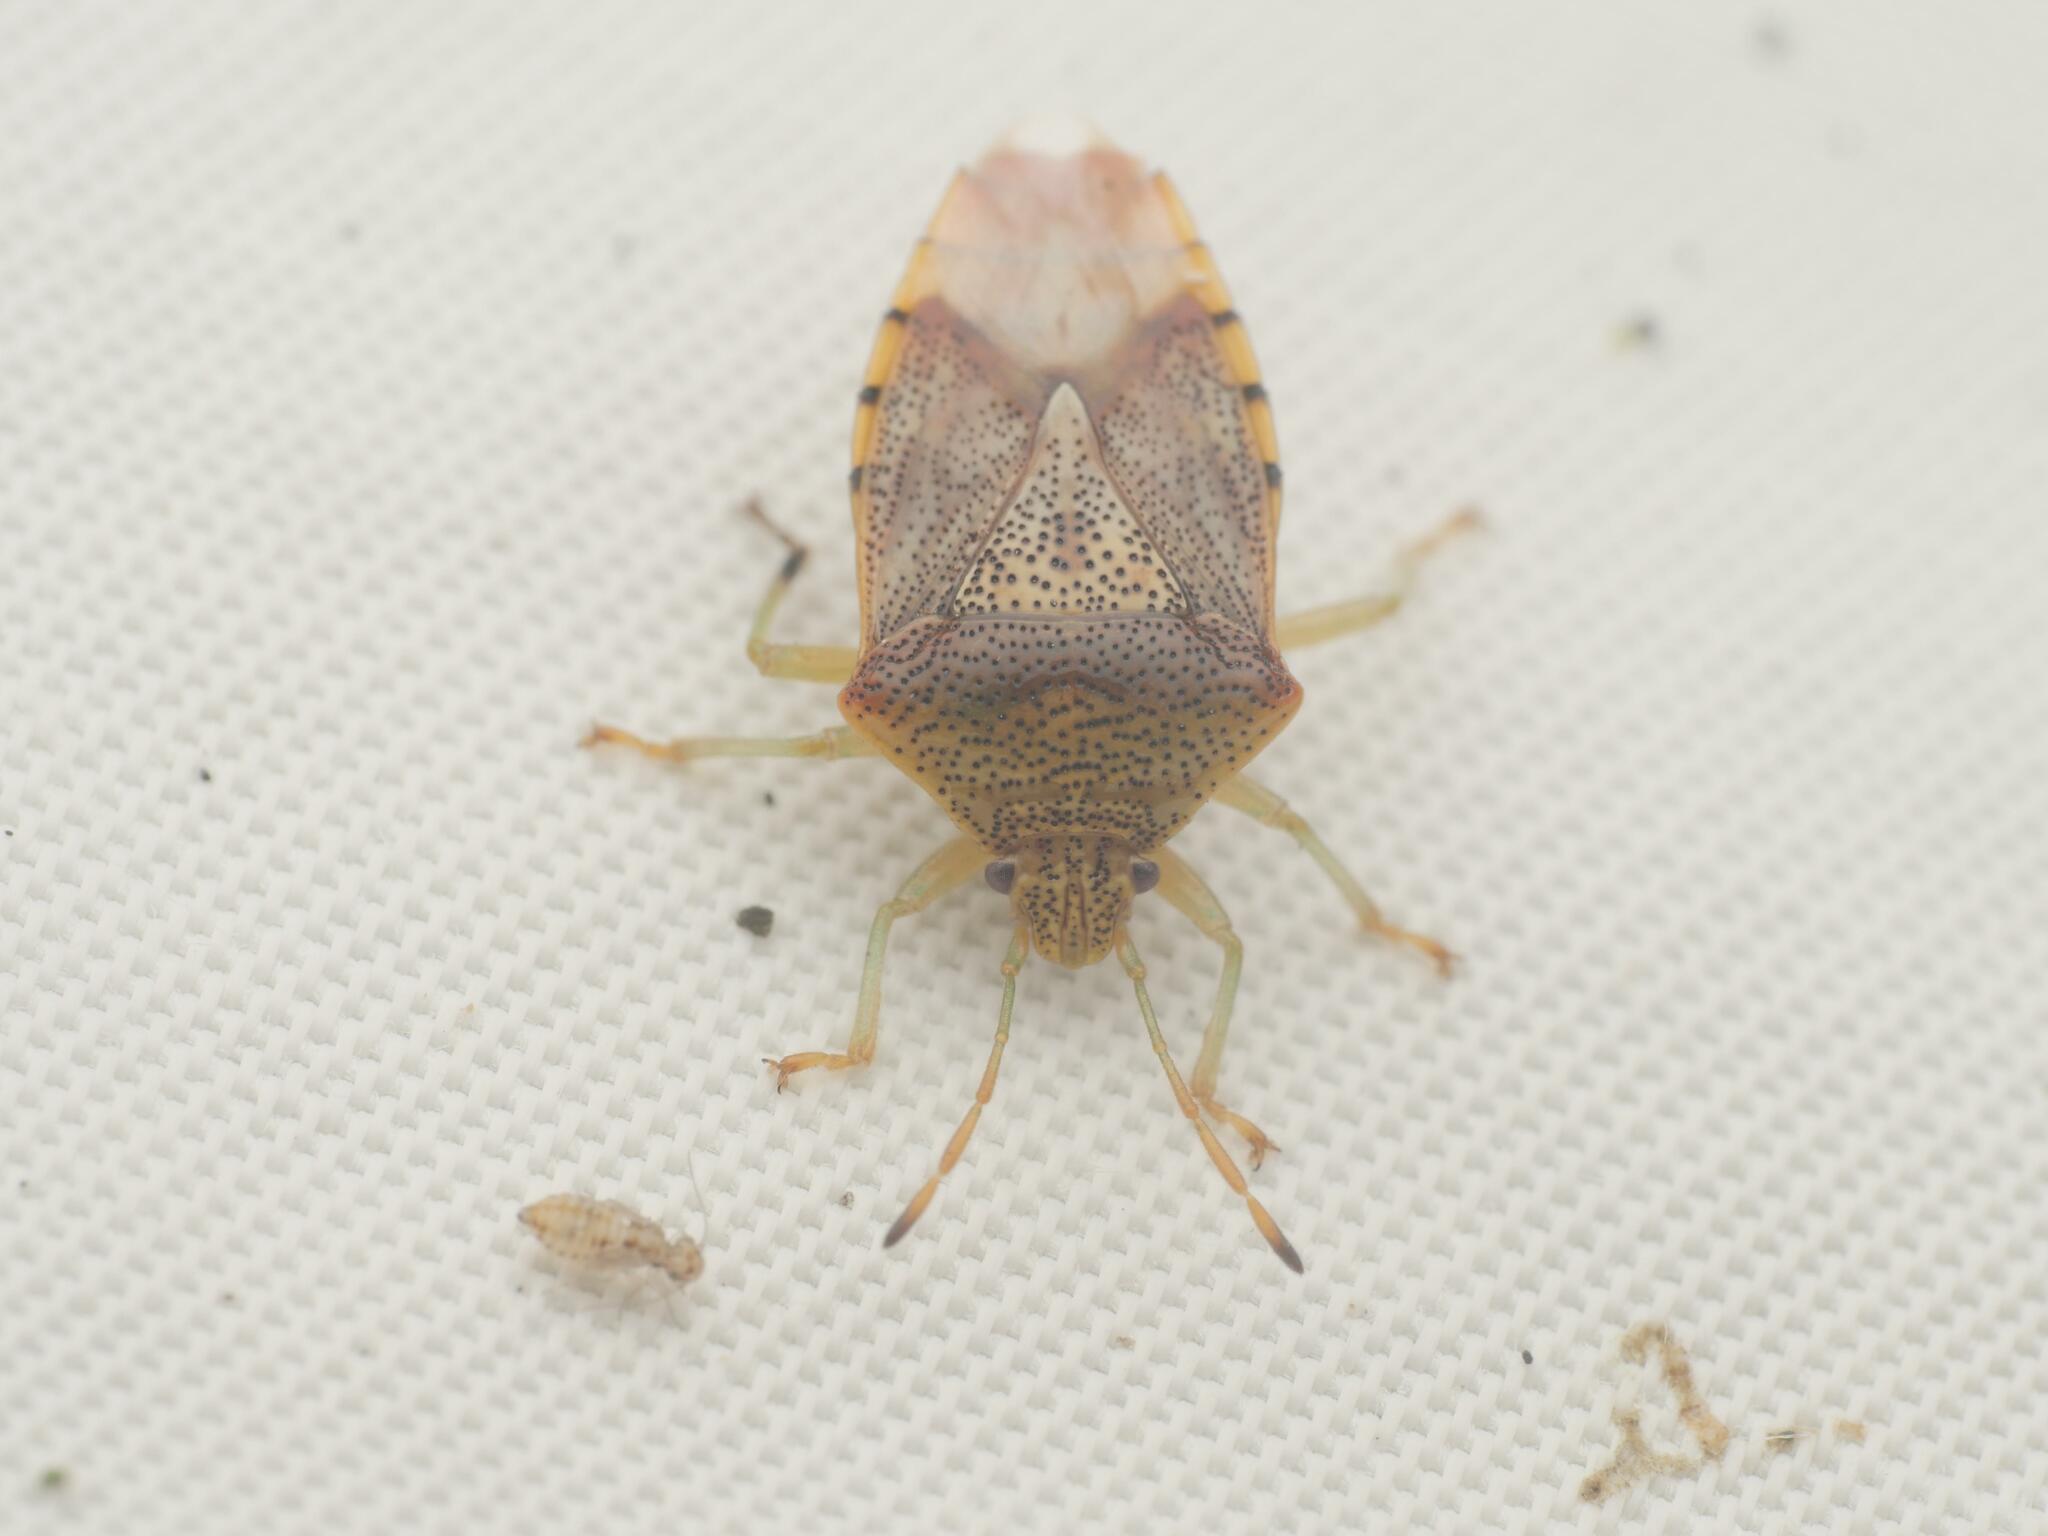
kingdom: Animalia
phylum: Arthropoda
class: Insecta
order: Hemiptera
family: Acanthosomatidae
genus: Elasmucha
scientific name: Elasmucha grisea
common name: Parent bug
